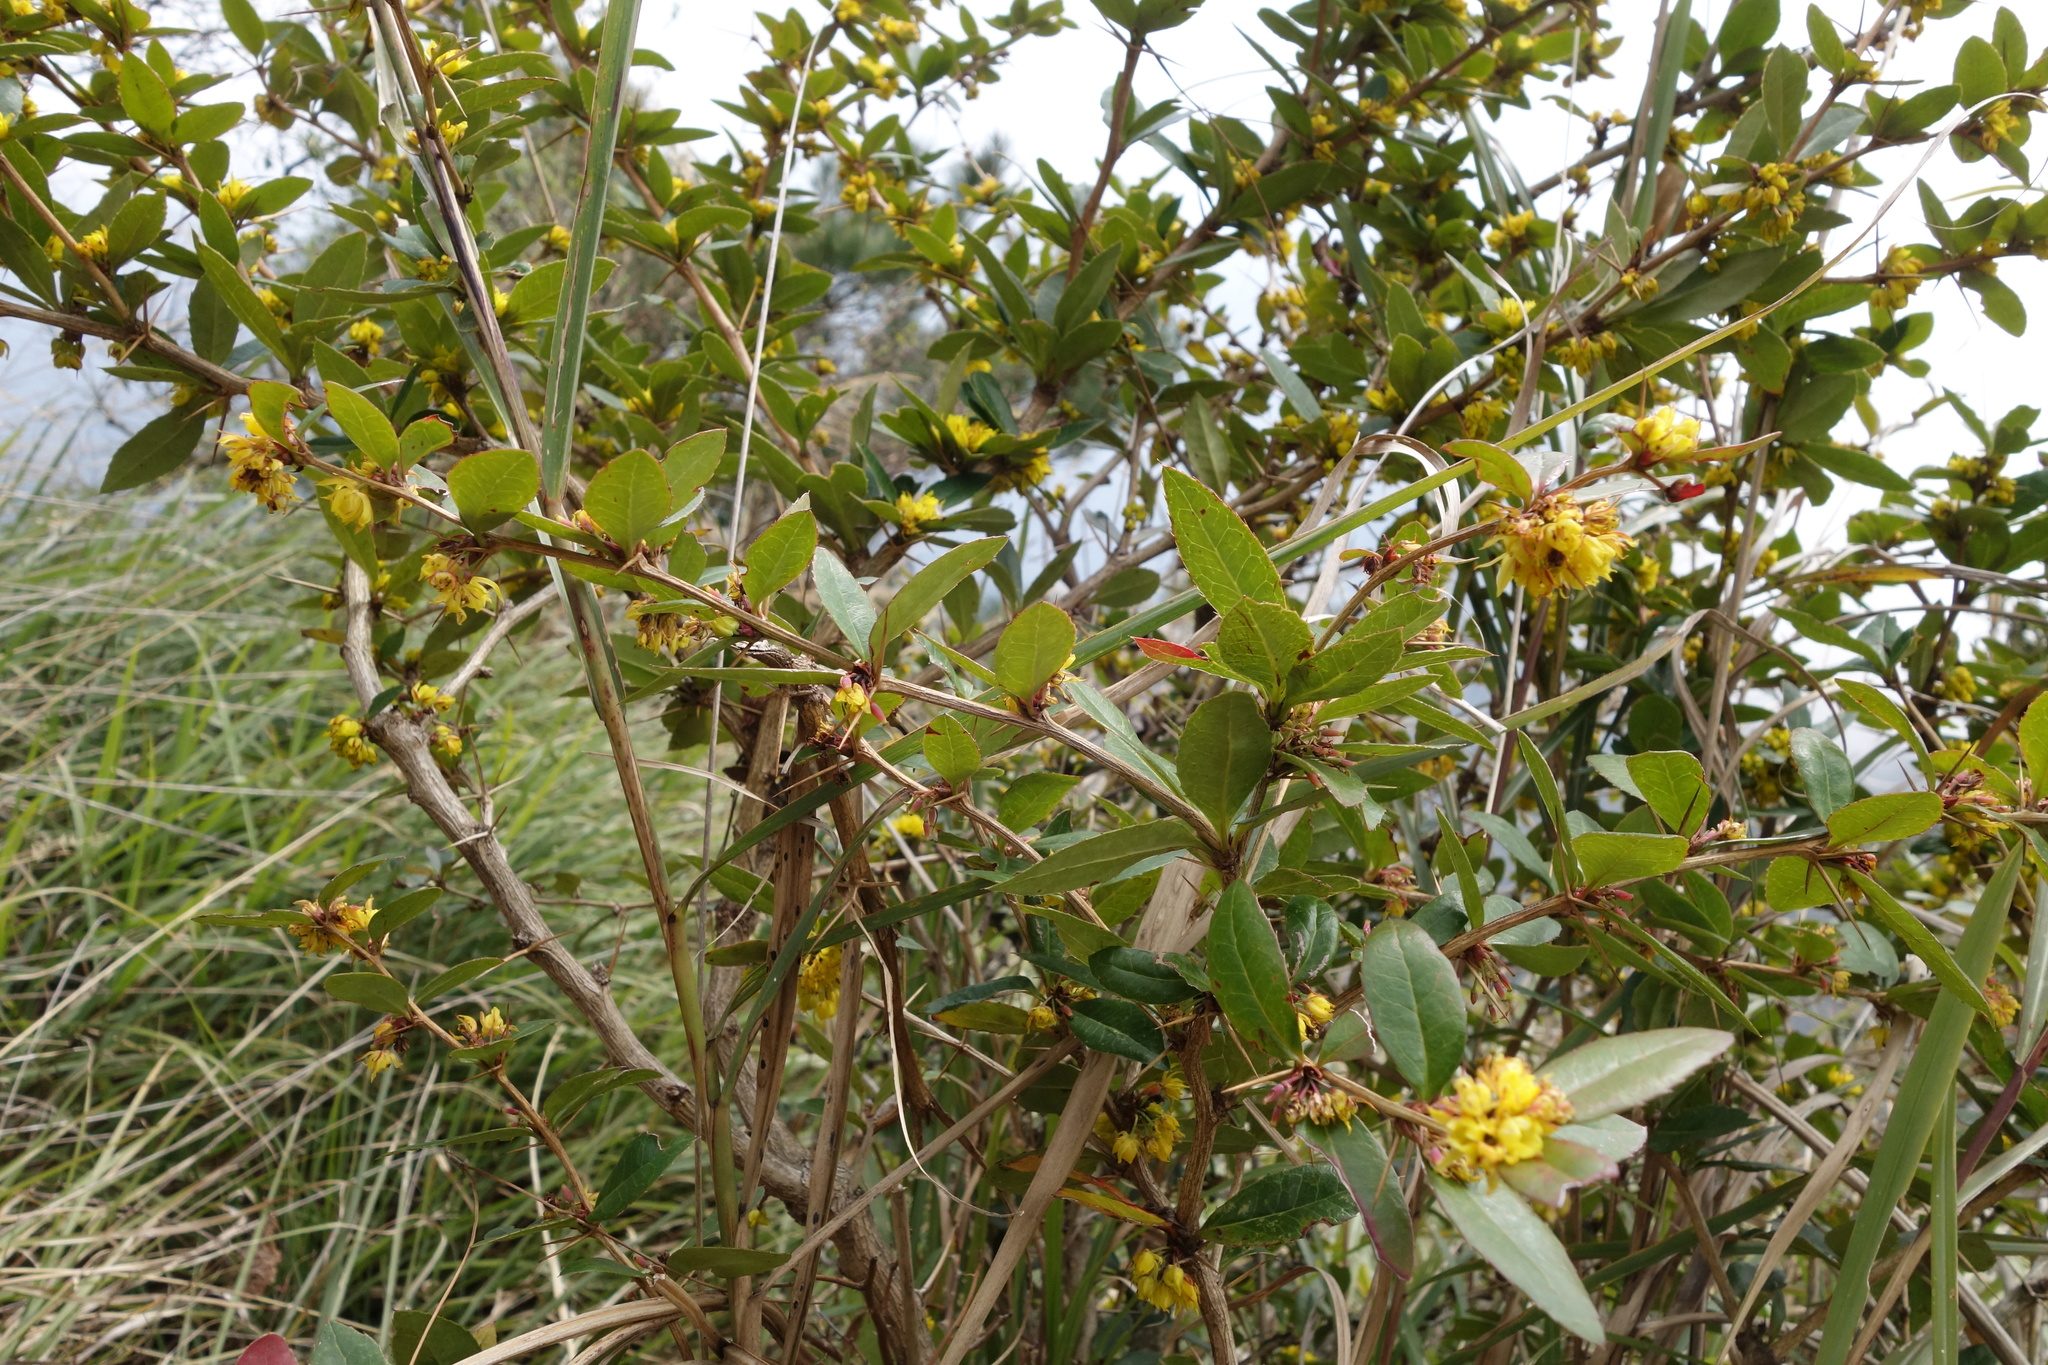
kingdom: Plantae
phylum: Tracheophyta
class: Magnoliopsida
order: Ranunculales
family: Berberidaceae
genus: Berberis
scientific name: Berberis kawakamii
